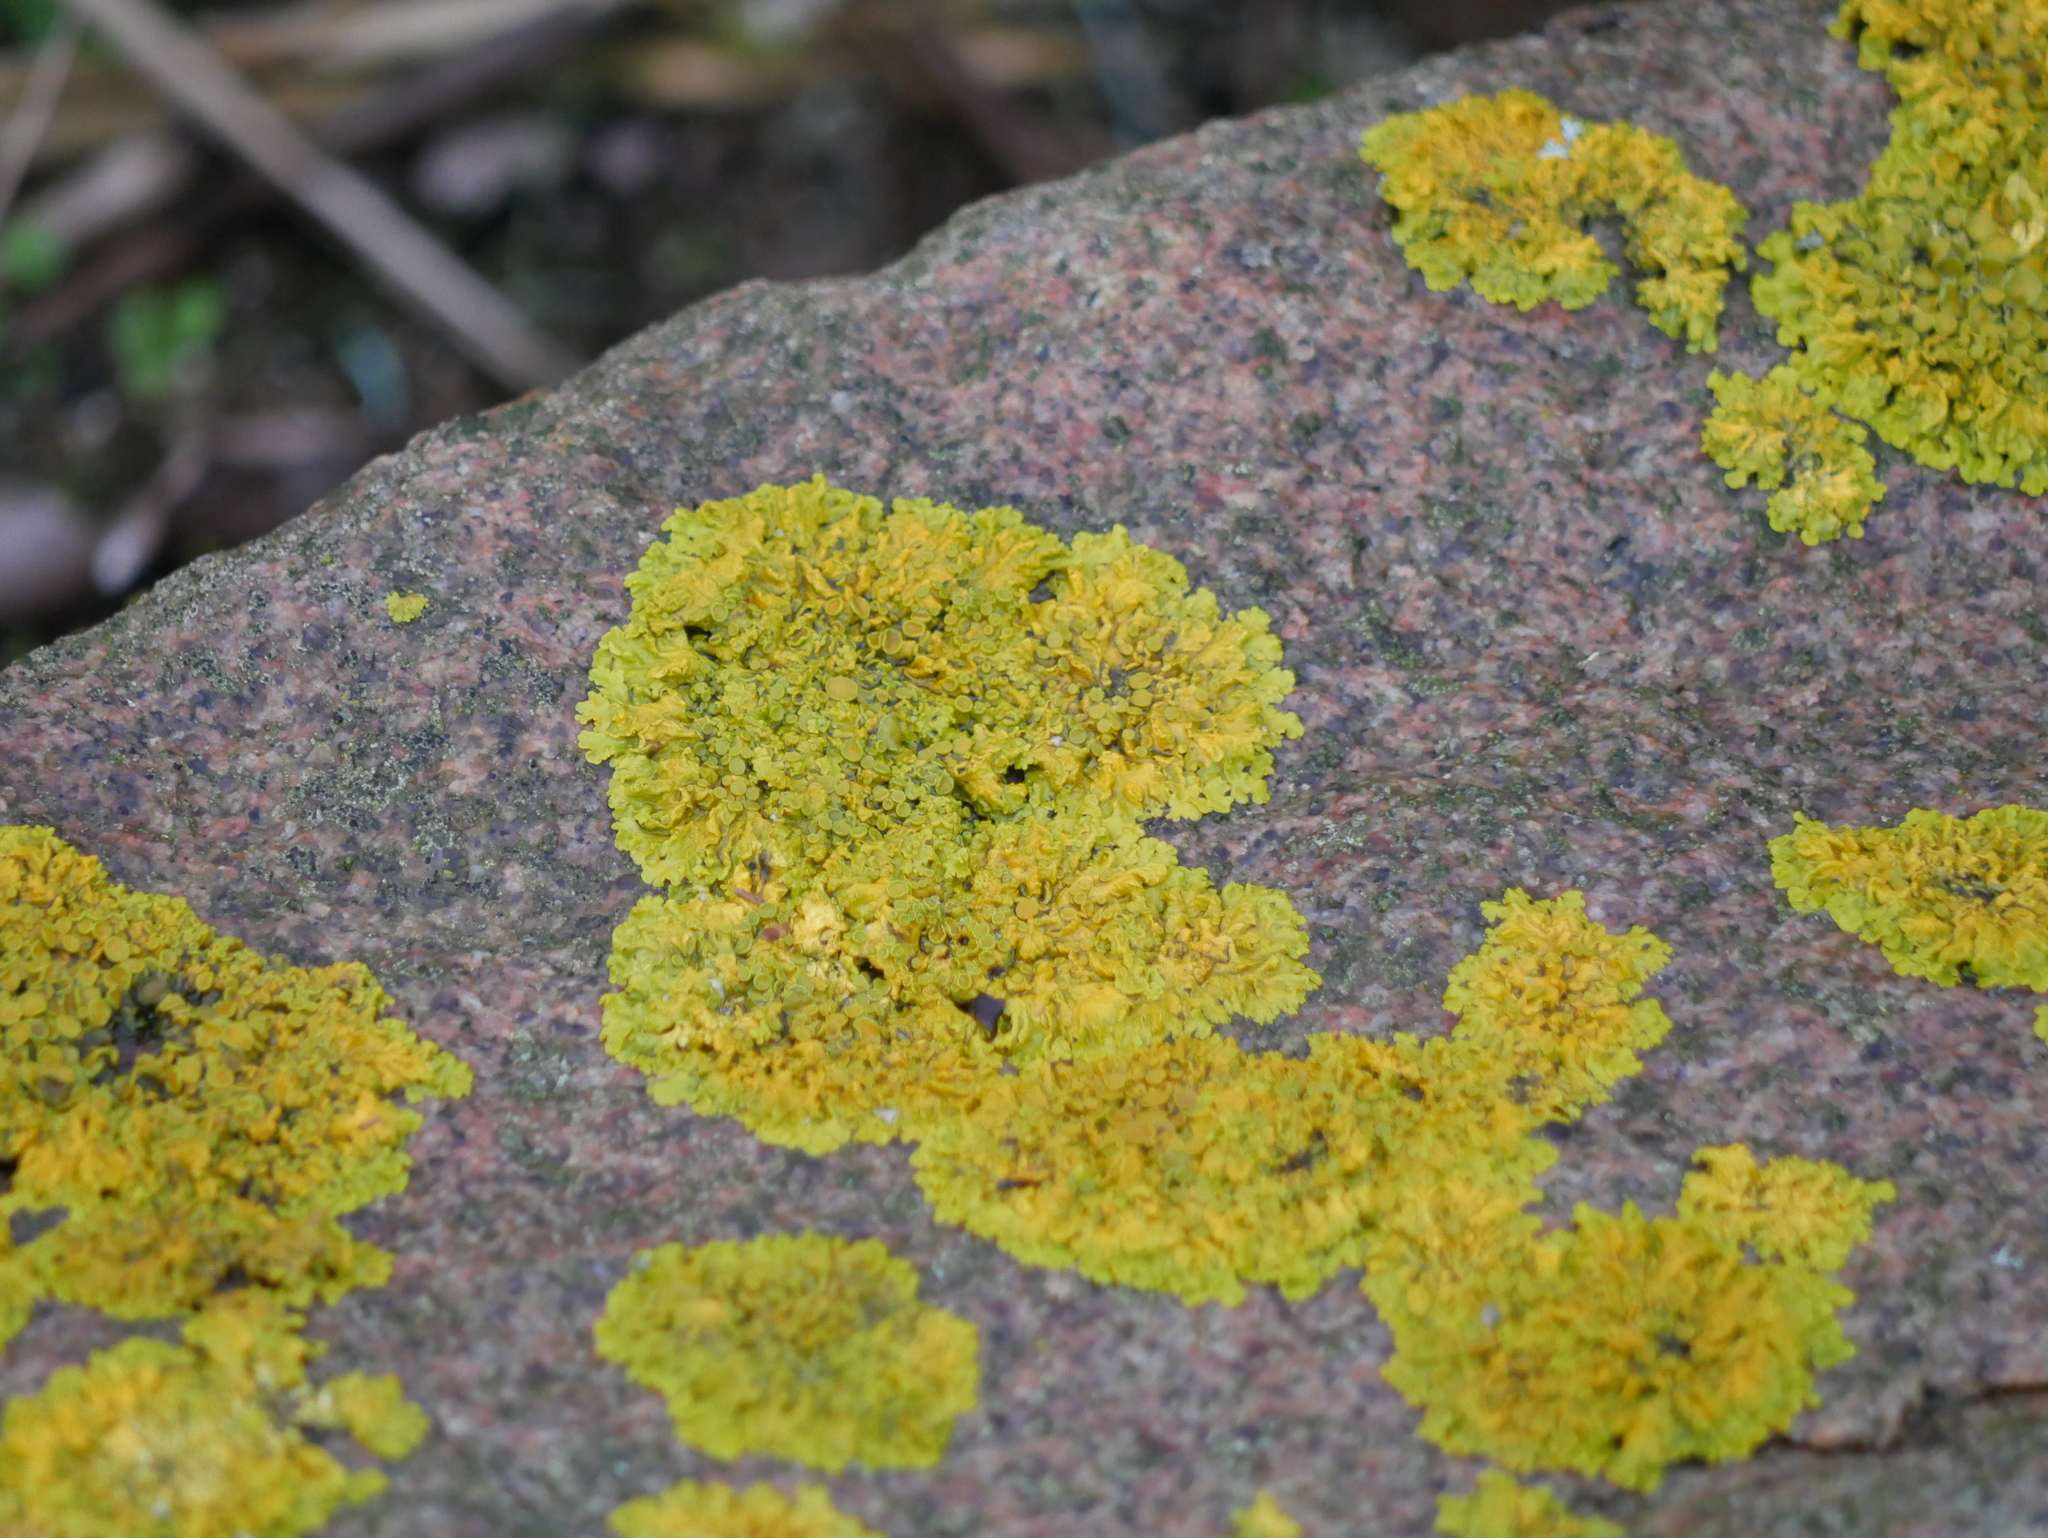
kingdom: Fungi
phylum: Ascomycota
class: Lecanoromycetes
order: Teloschistales
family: Teloschistaceae
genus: Xanthoria
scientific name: Xanthoria parietina
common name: Common orange lichen
